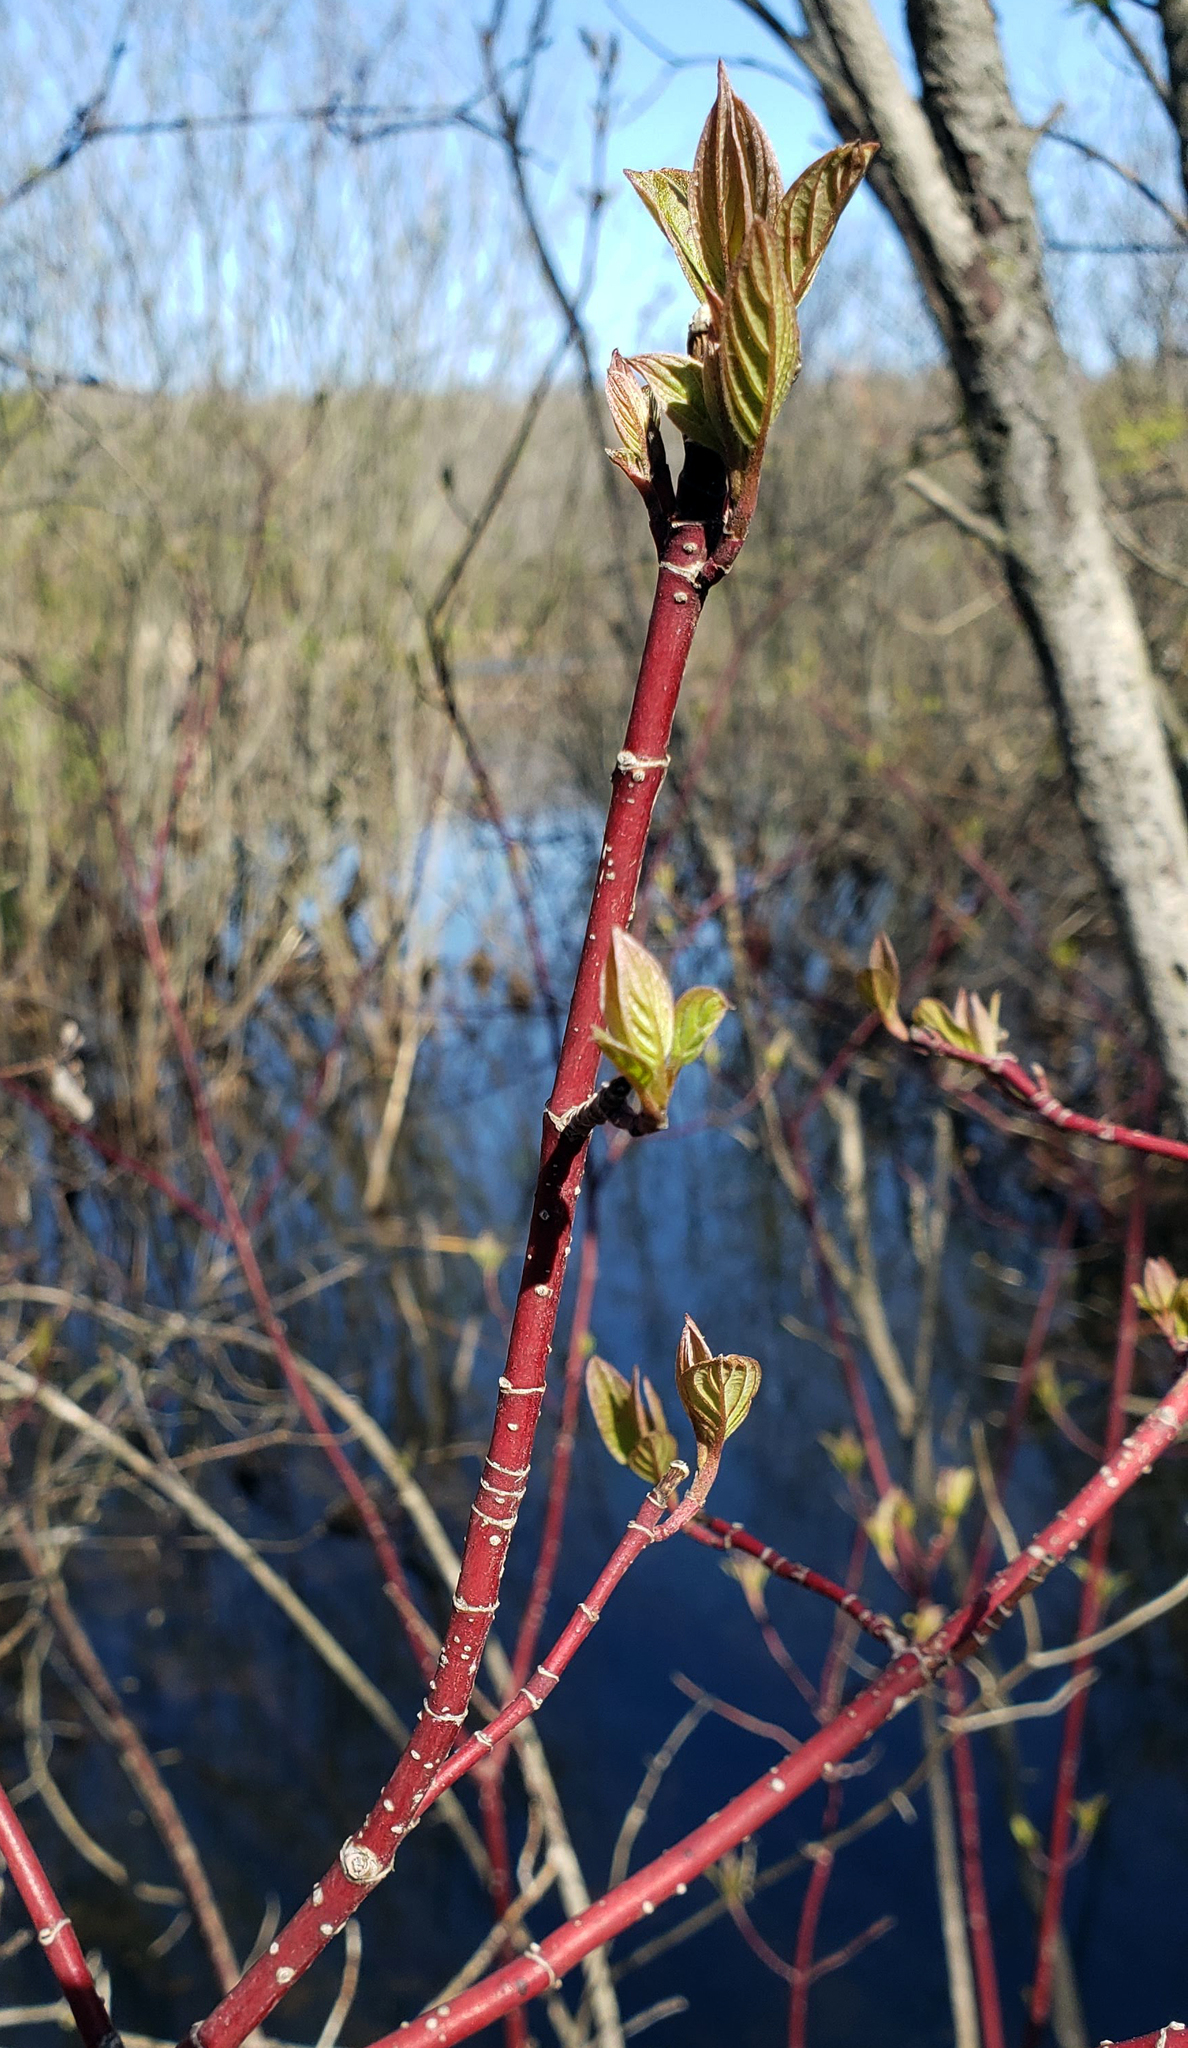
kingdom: Plantae
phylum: Tracheophyta
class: Magnoliopsida
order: Cornales
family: Cornaceae
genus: Cornus
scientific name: Cornus sericea
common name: Red-osier dogwood
